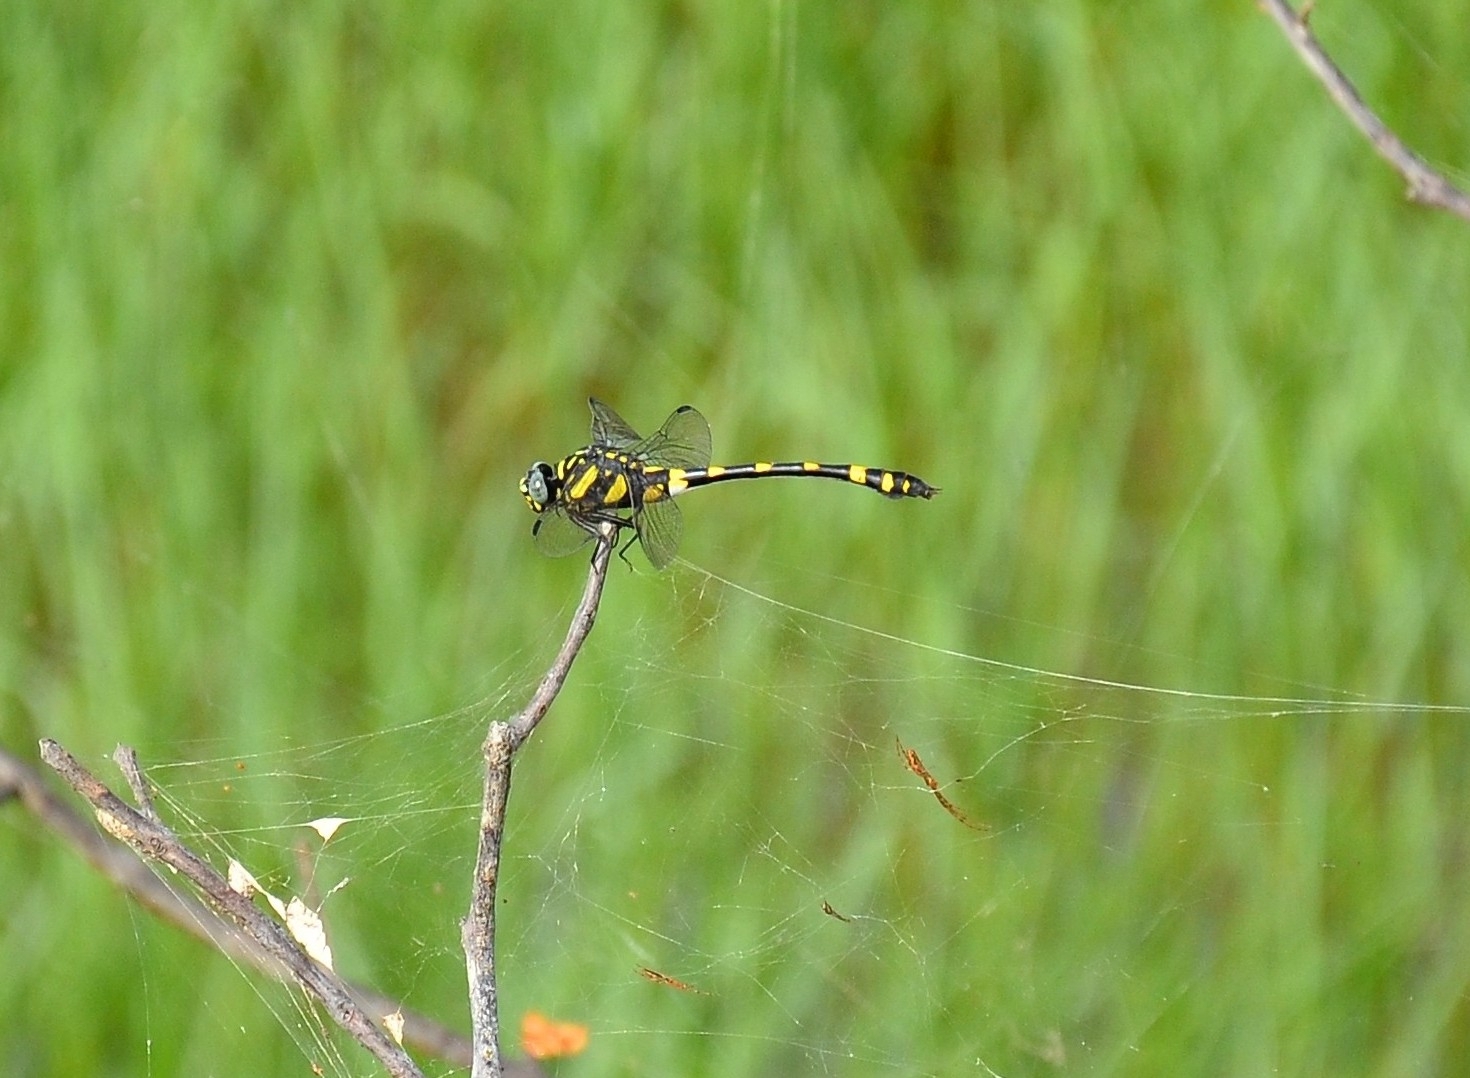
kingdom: Animalia
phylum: Arthropoda
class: Insecta
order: Odonata
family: Gomphidae
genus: Ictinogomphus
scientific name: Ictinogomphus rapax
